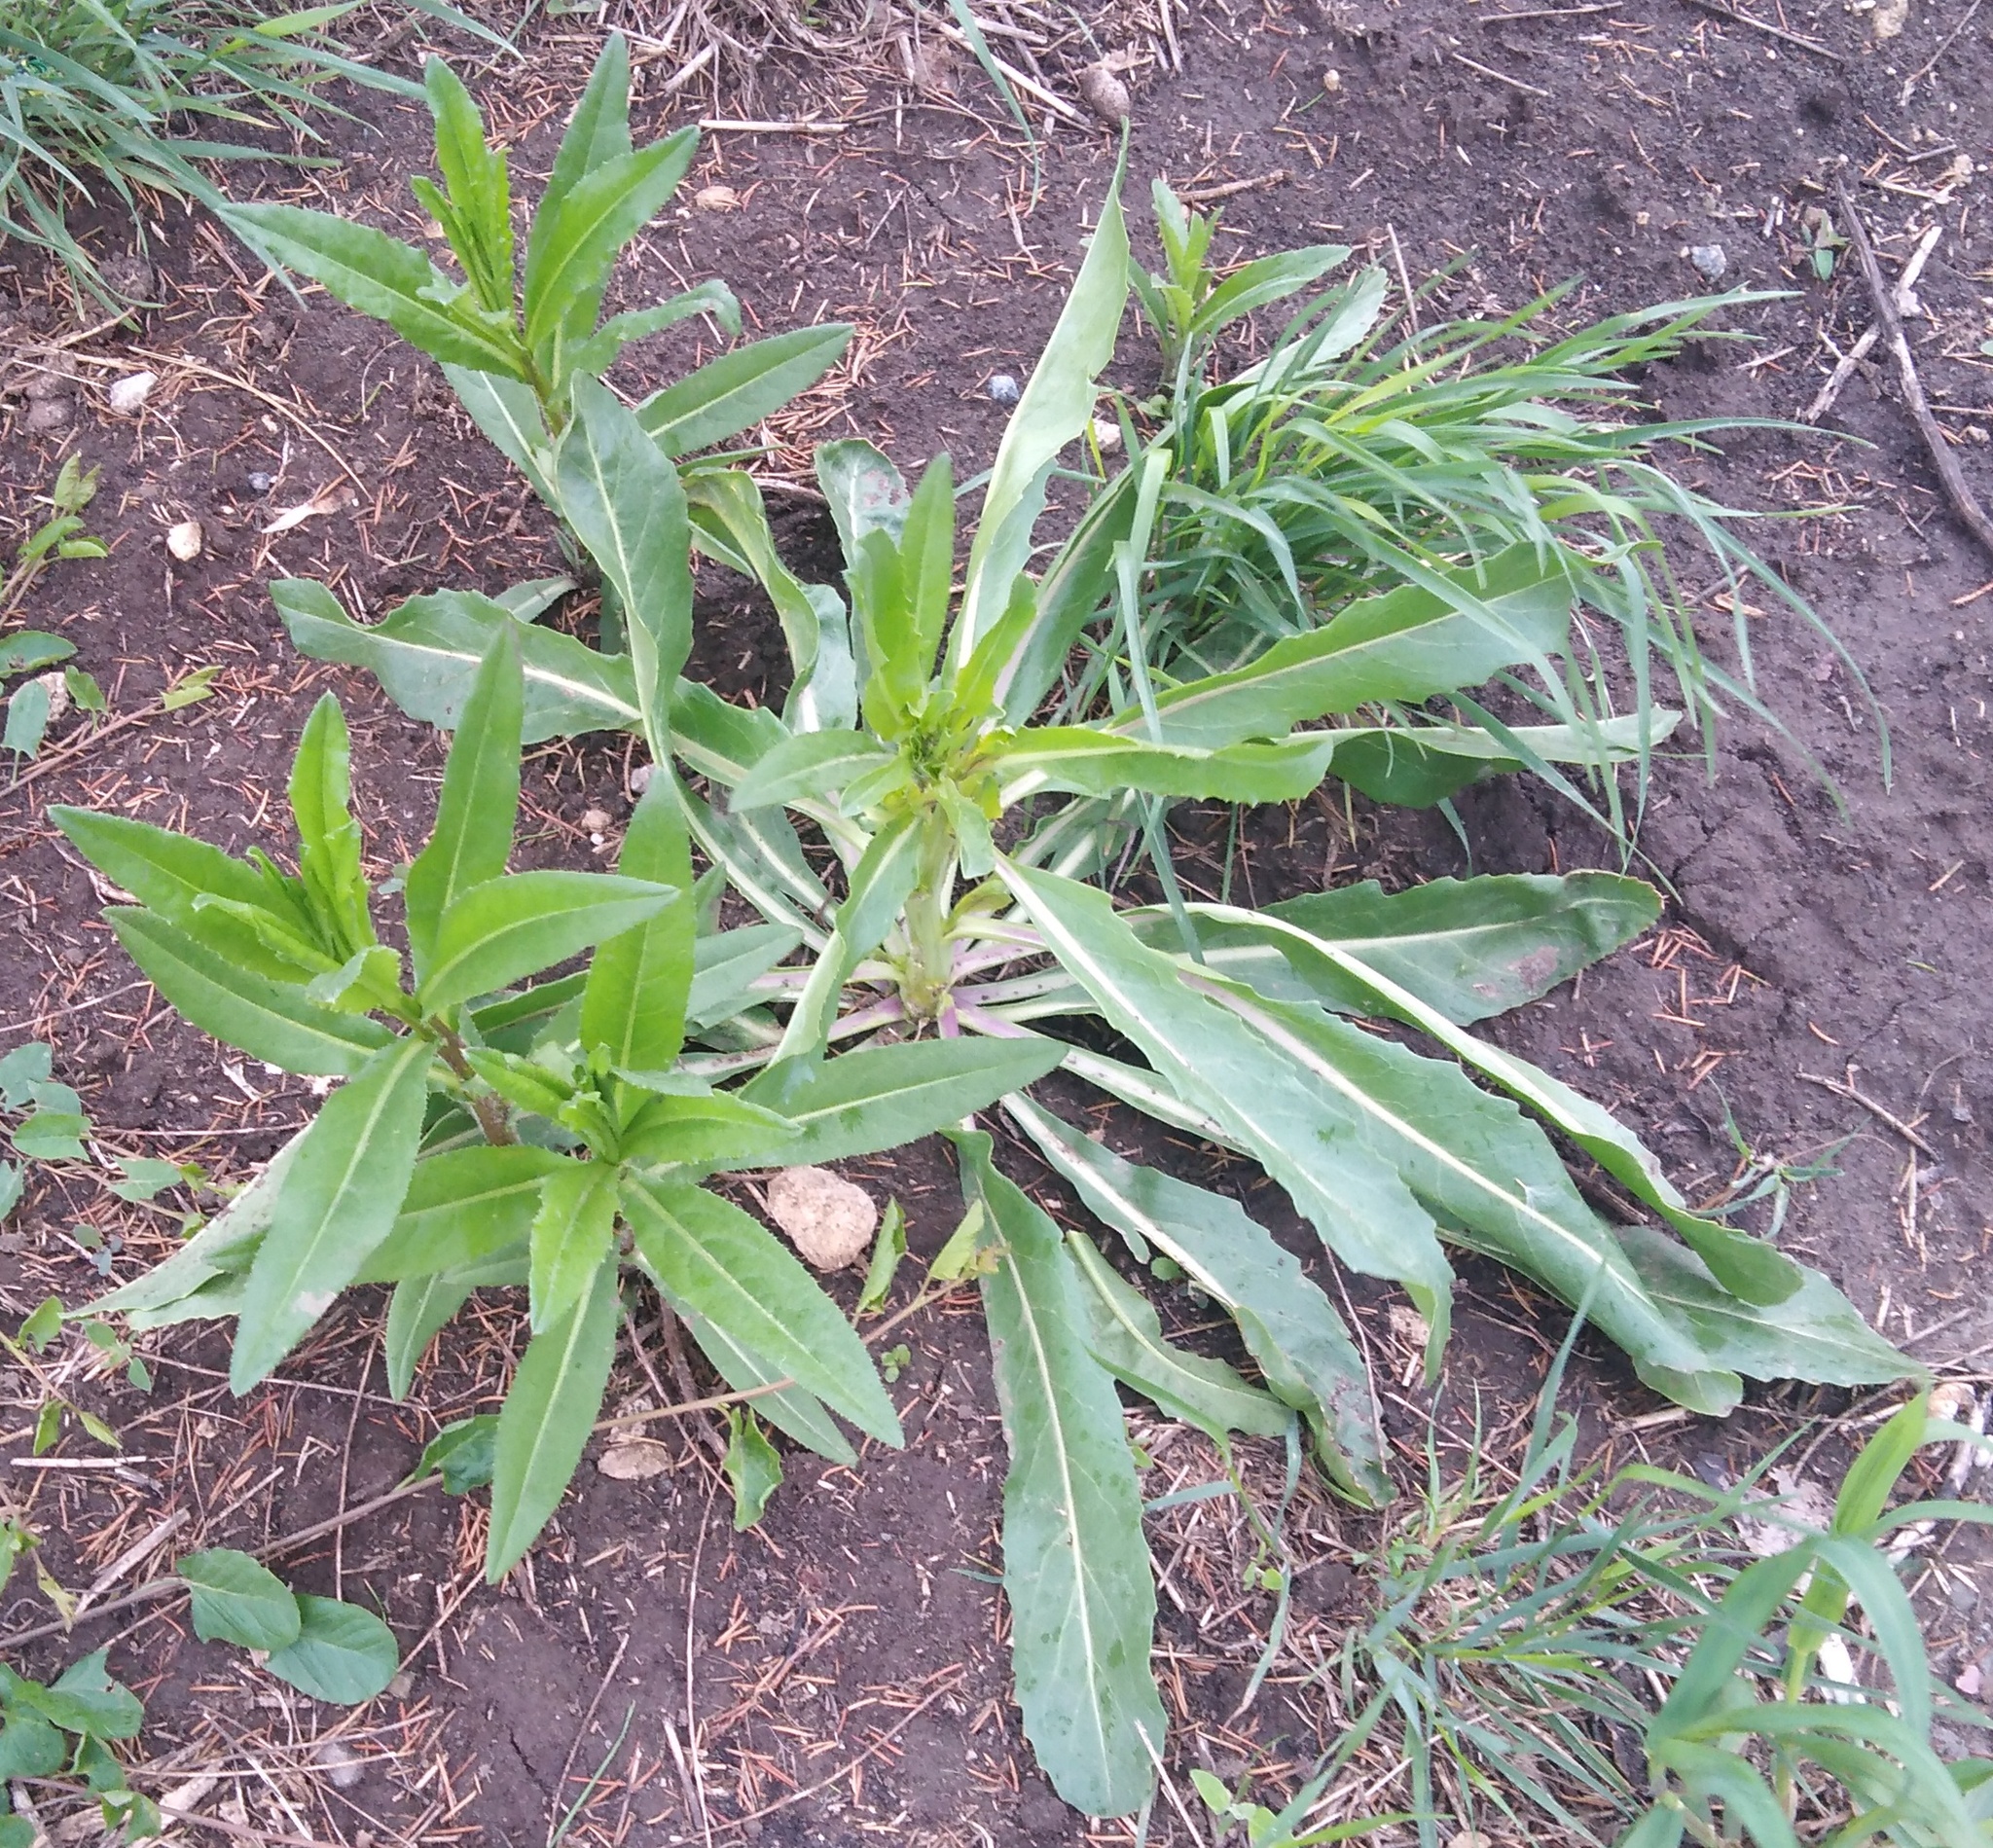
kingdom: Plantae
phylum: Tracheophyta
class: Magnoliopsida
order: Asterales
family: Asteraceae
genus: Cirsium
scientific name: Cirsium arvense
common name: Creeping thistle
